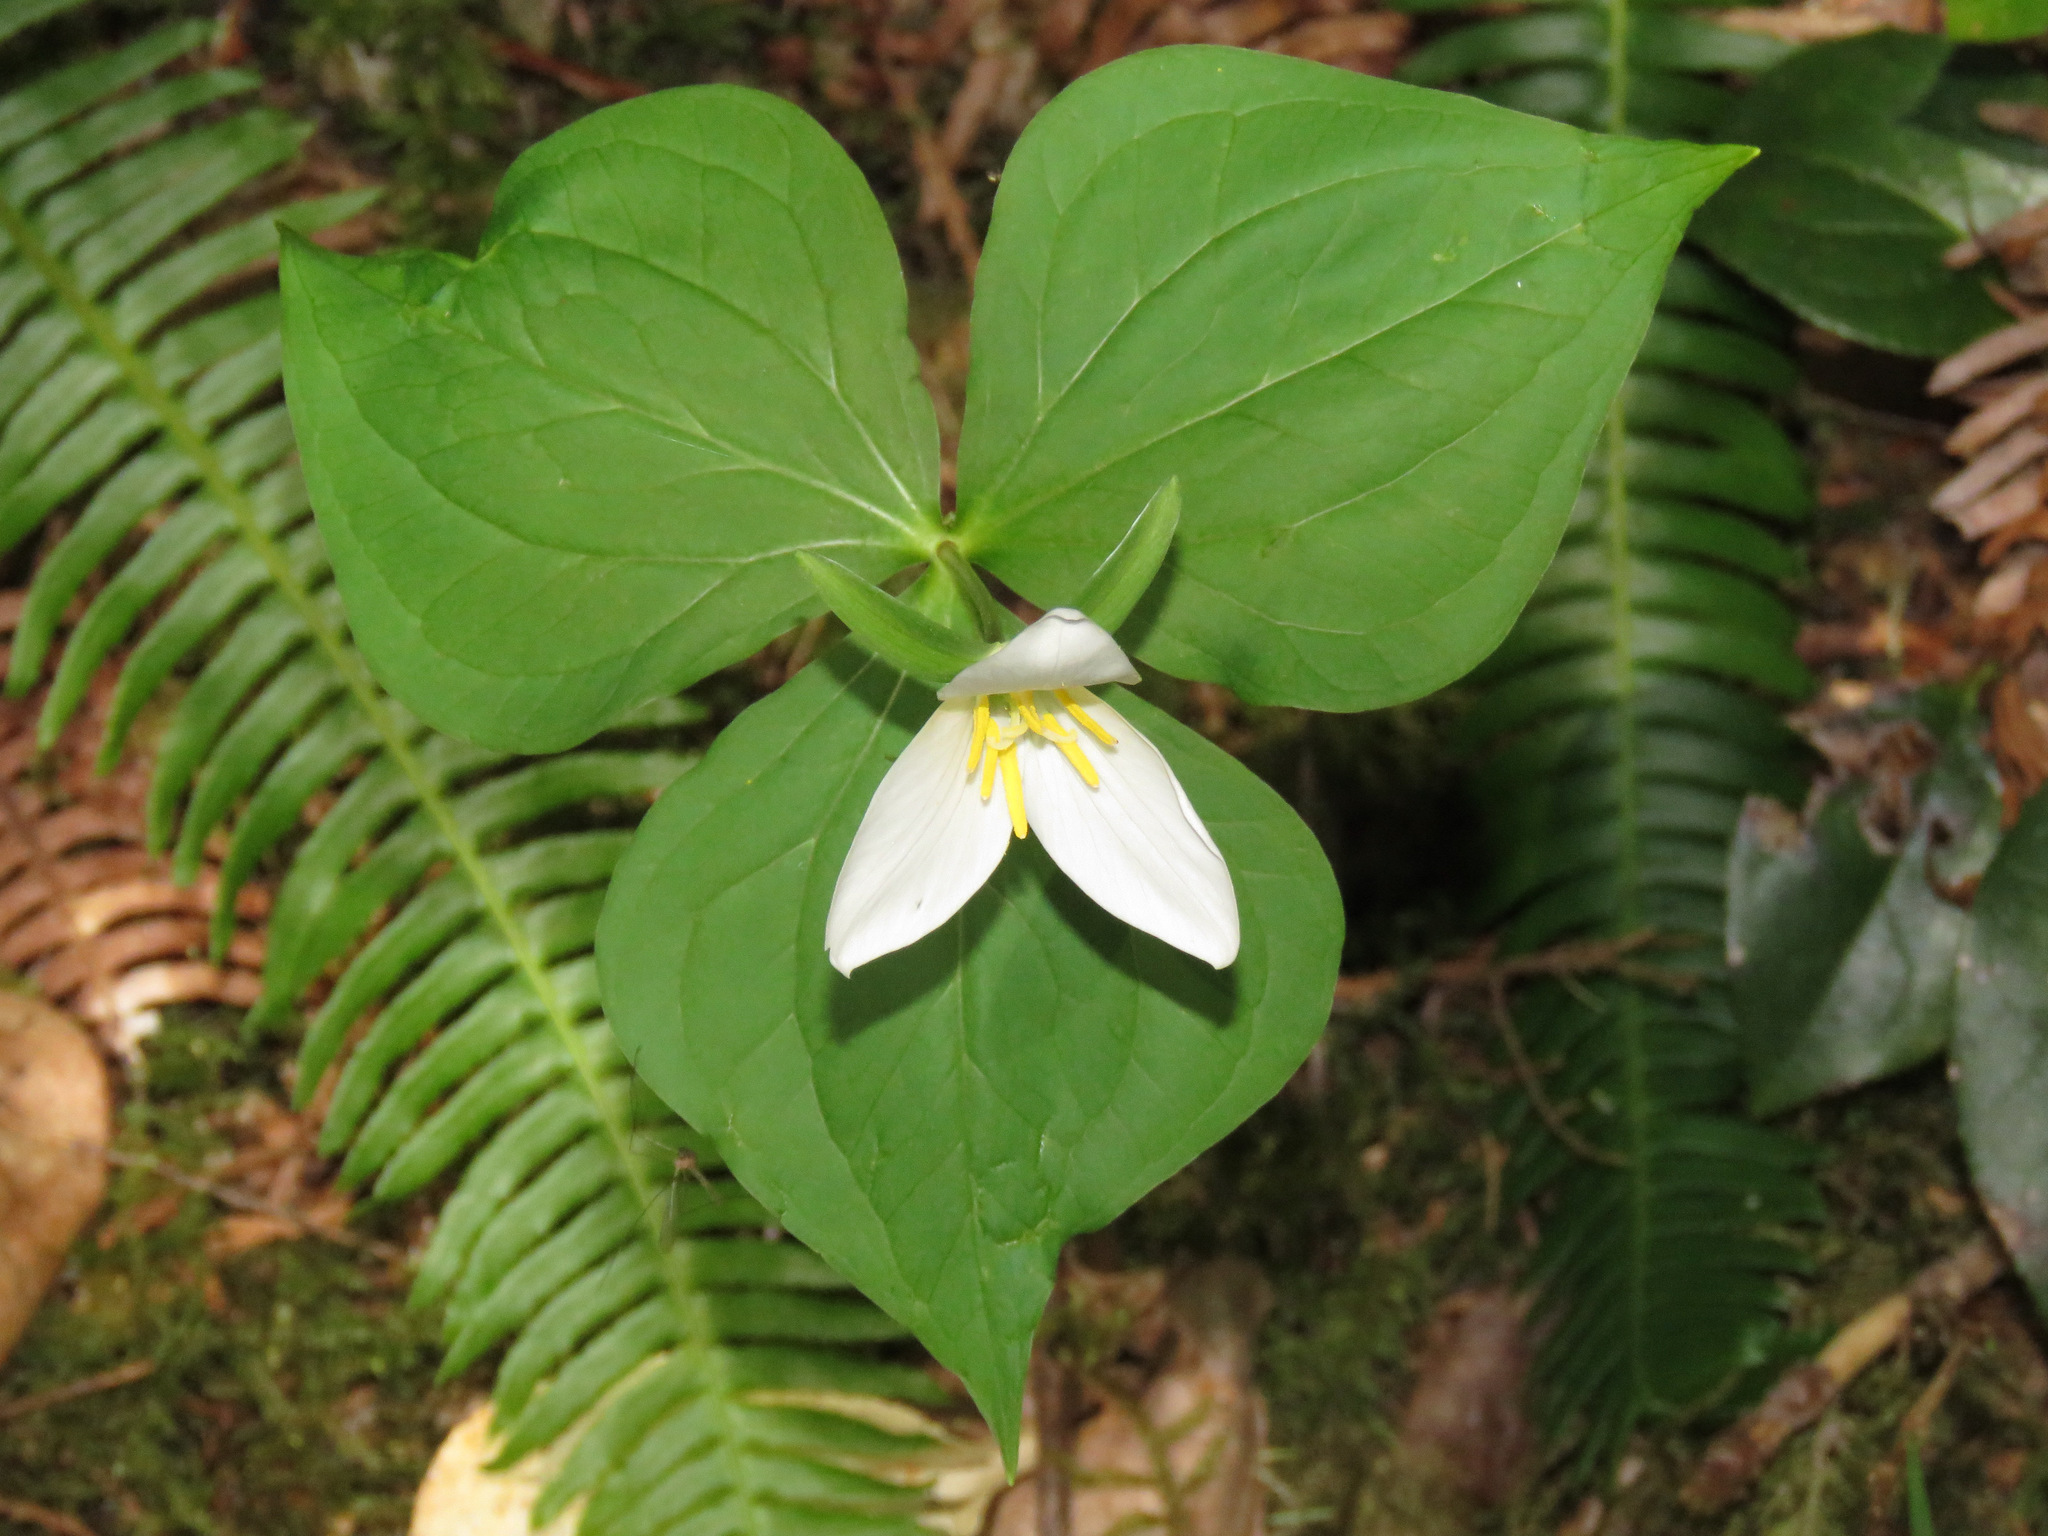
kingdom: Plantae
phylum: Tracheophyta
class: Liliopsida
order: Liliales
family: Melanthiaceae
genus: Trillium
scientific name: Trillium ovatum
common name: Pacific trillium
